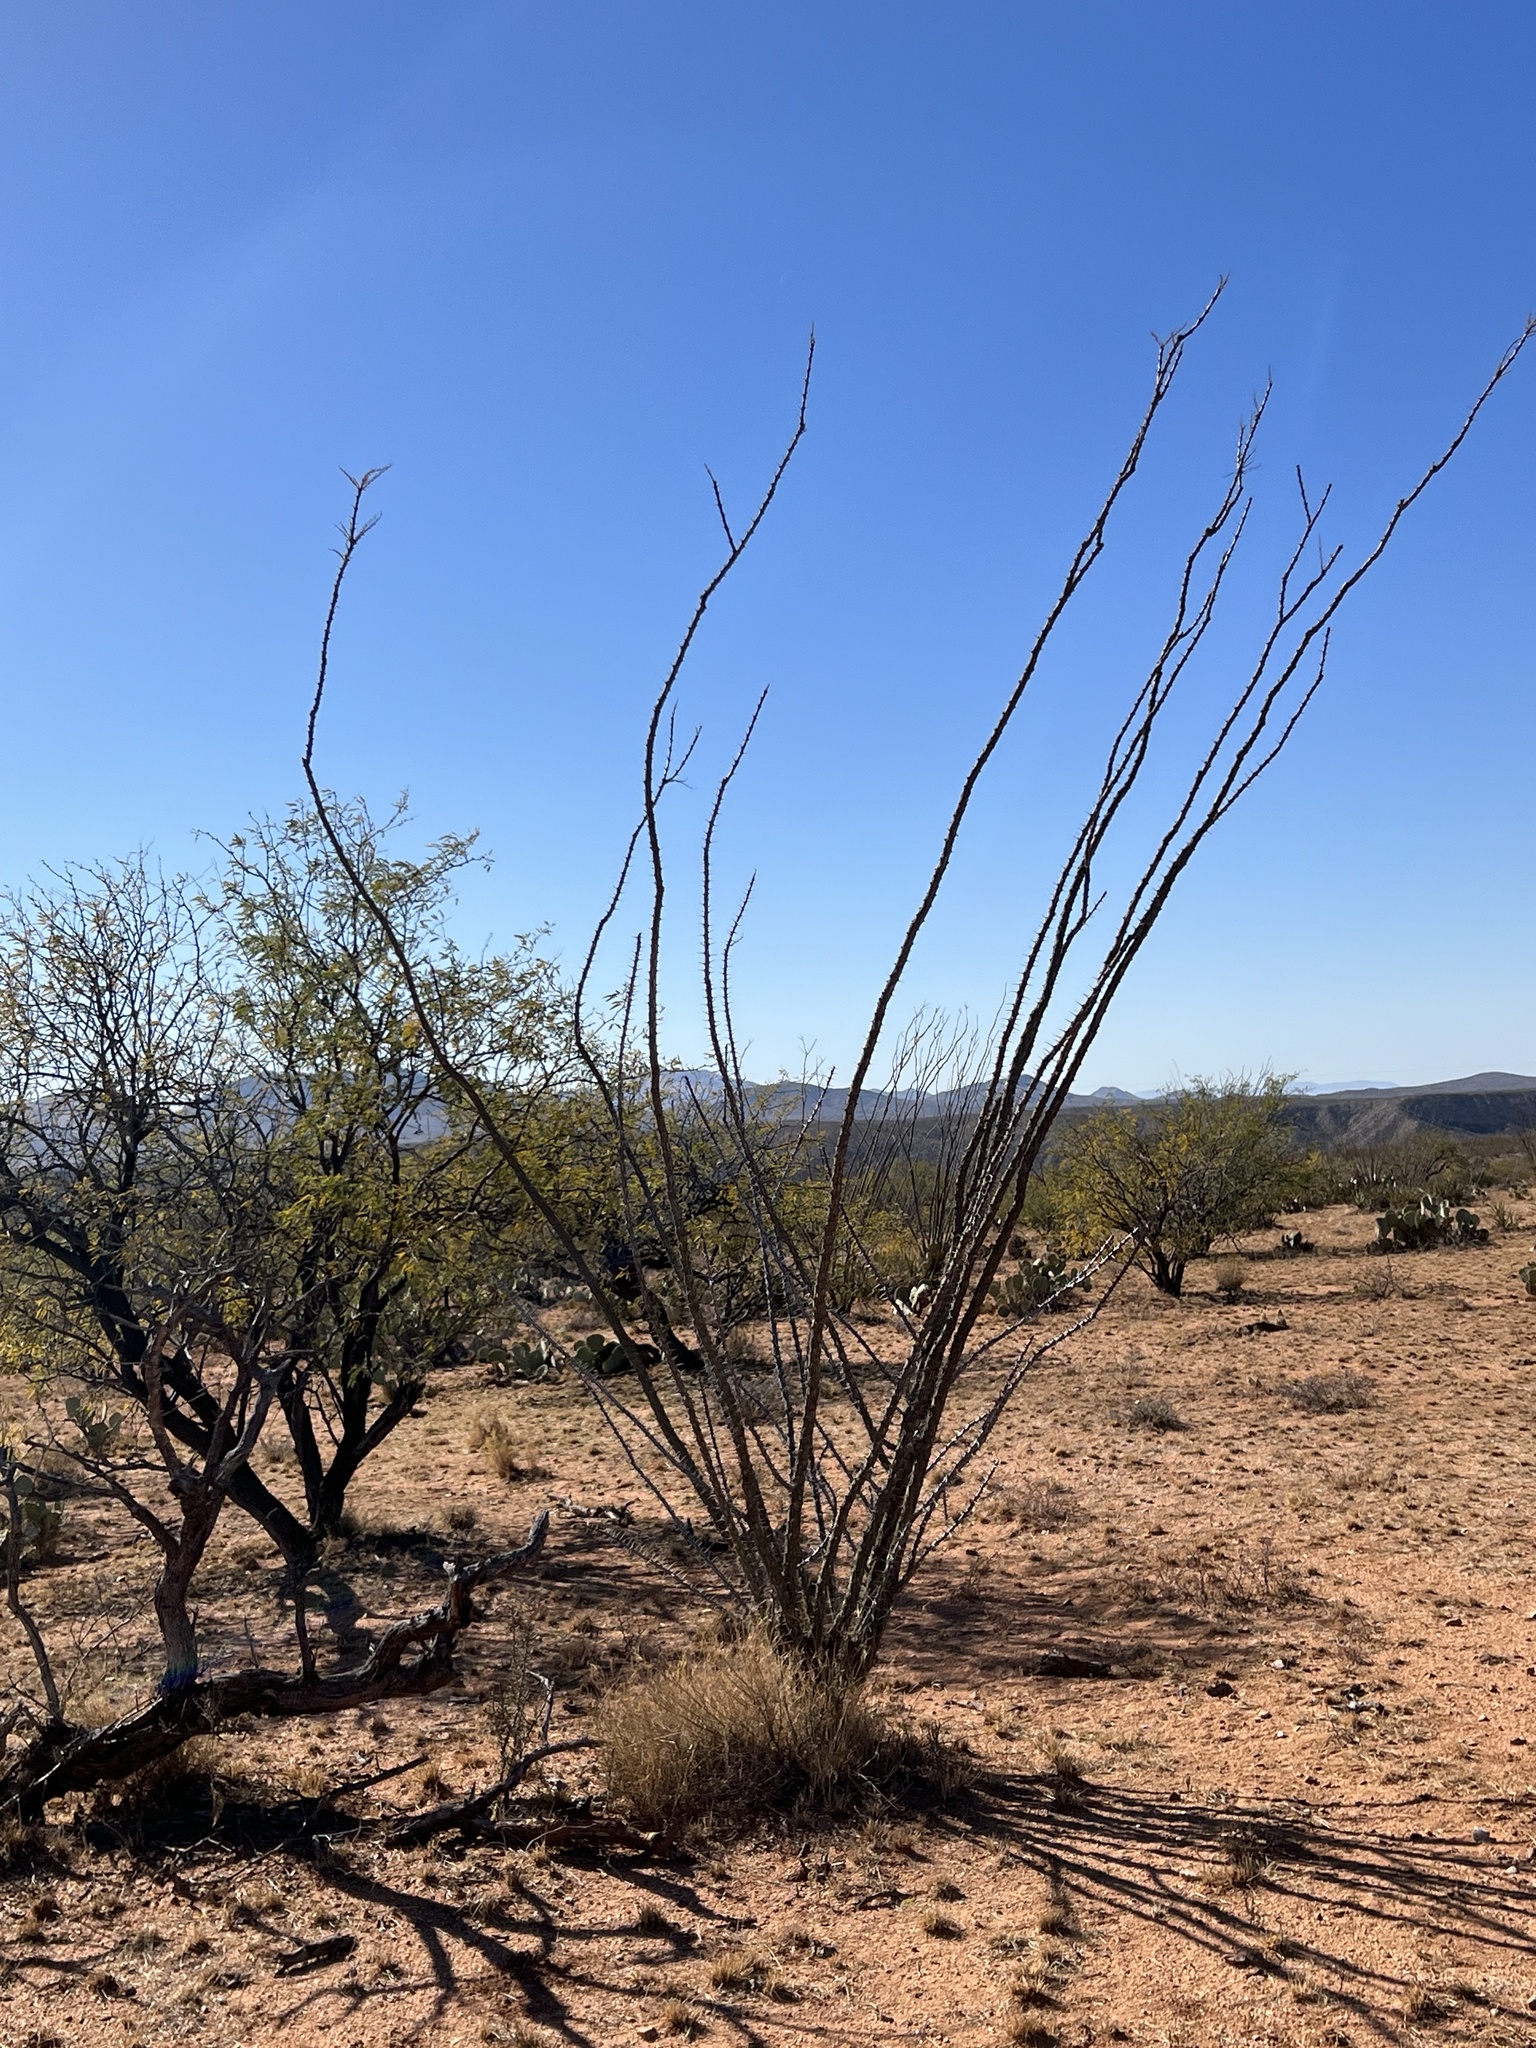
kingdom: Plantae
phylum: Tracheophyta
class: Magnoliopsida
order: Ericales
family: Fouquieriaceae
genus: Fouquieria
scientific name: Fouquieria splendens
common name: Vine-cactus
